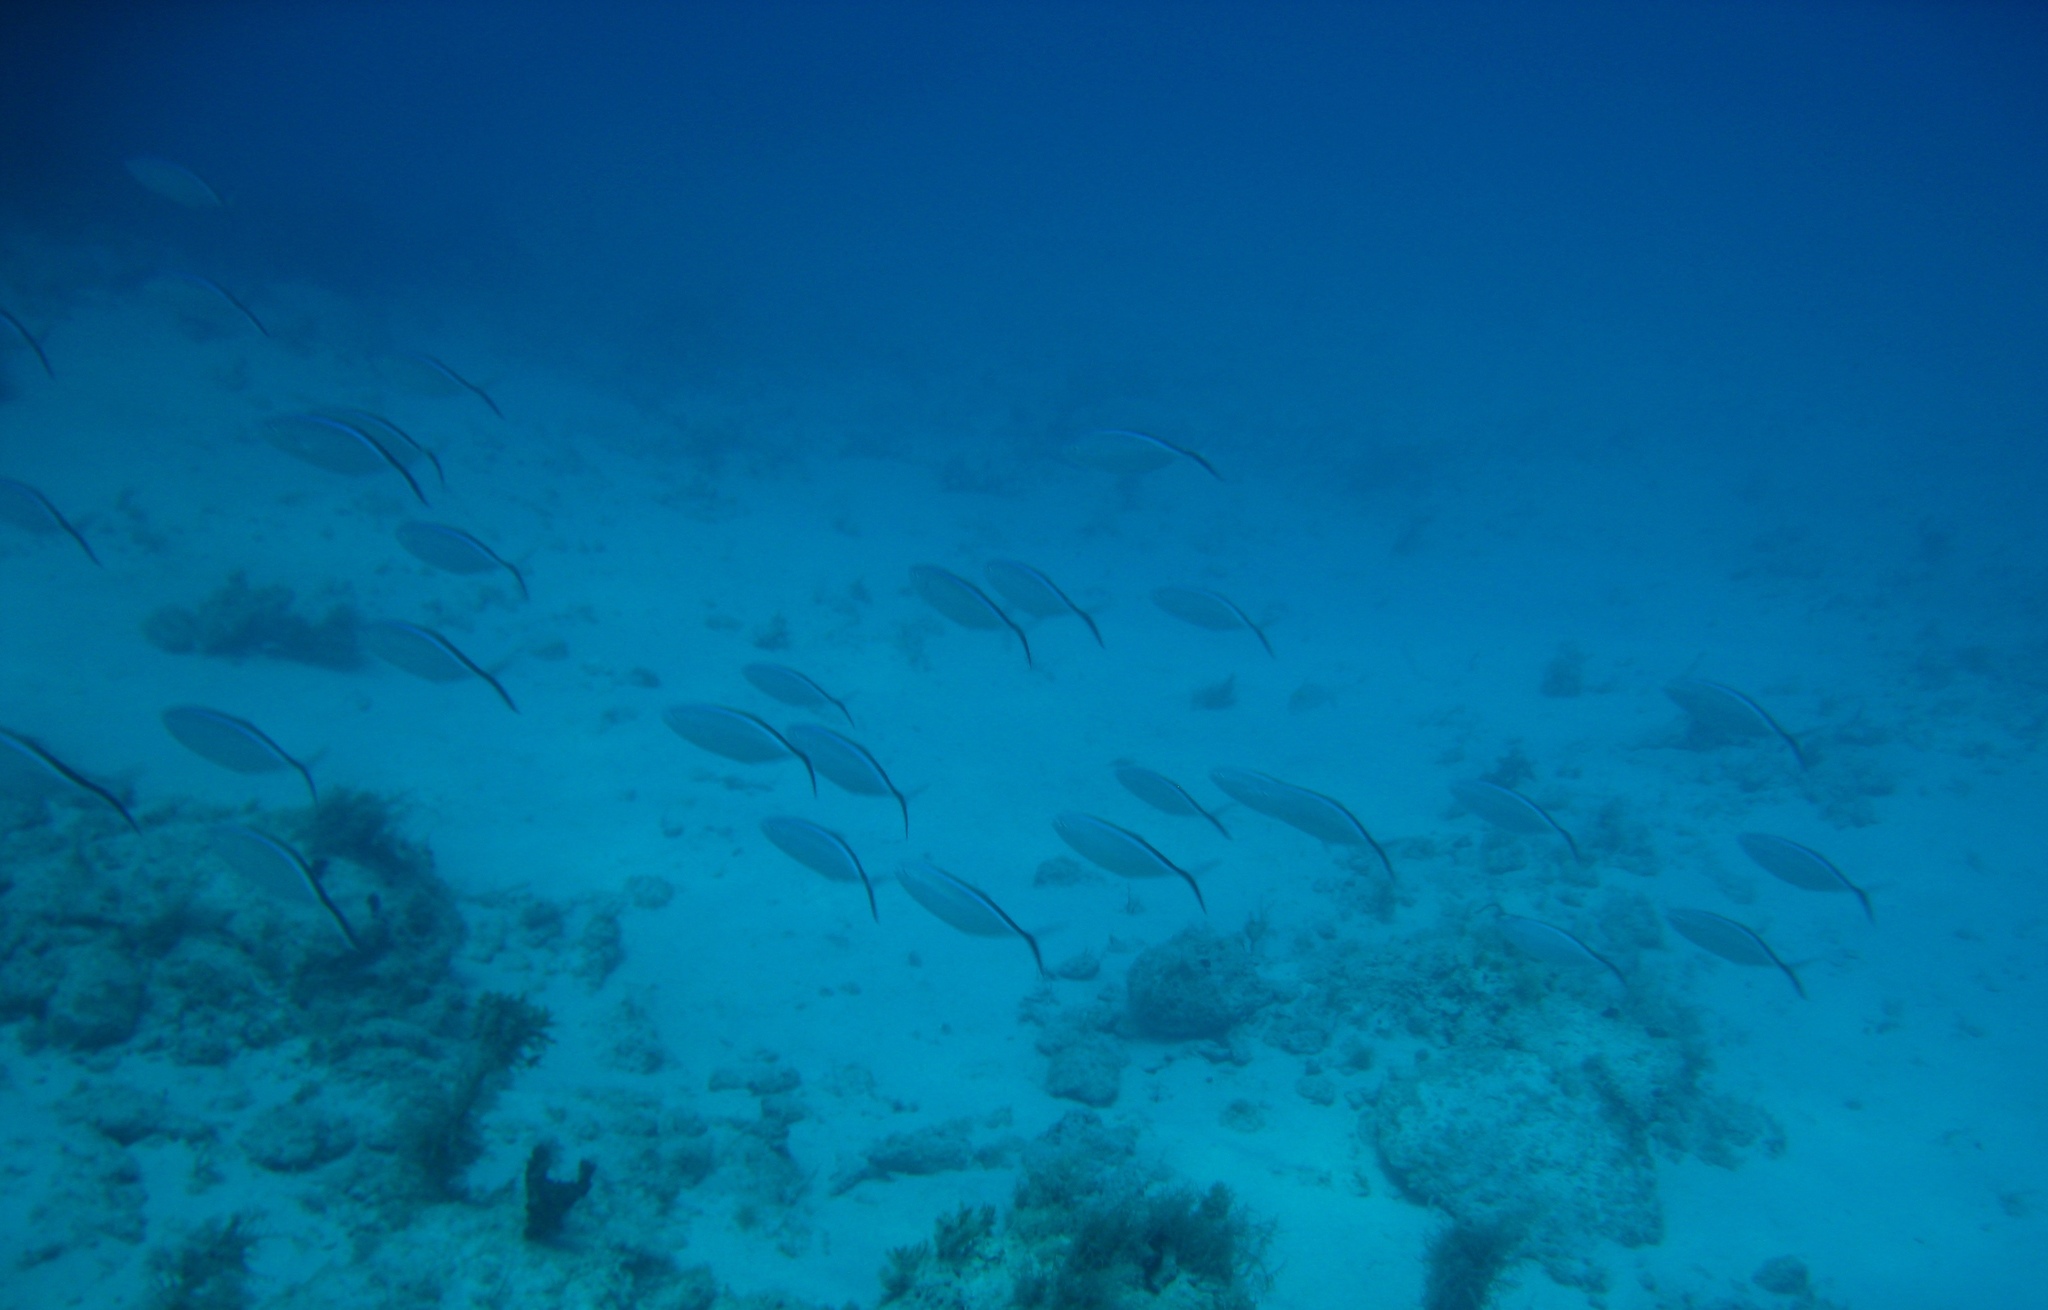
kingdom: Animalia
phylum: Chordata
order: Perciformes
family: Carangidae
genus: Caranx
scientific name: Caranx ruber
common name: Bar jack
